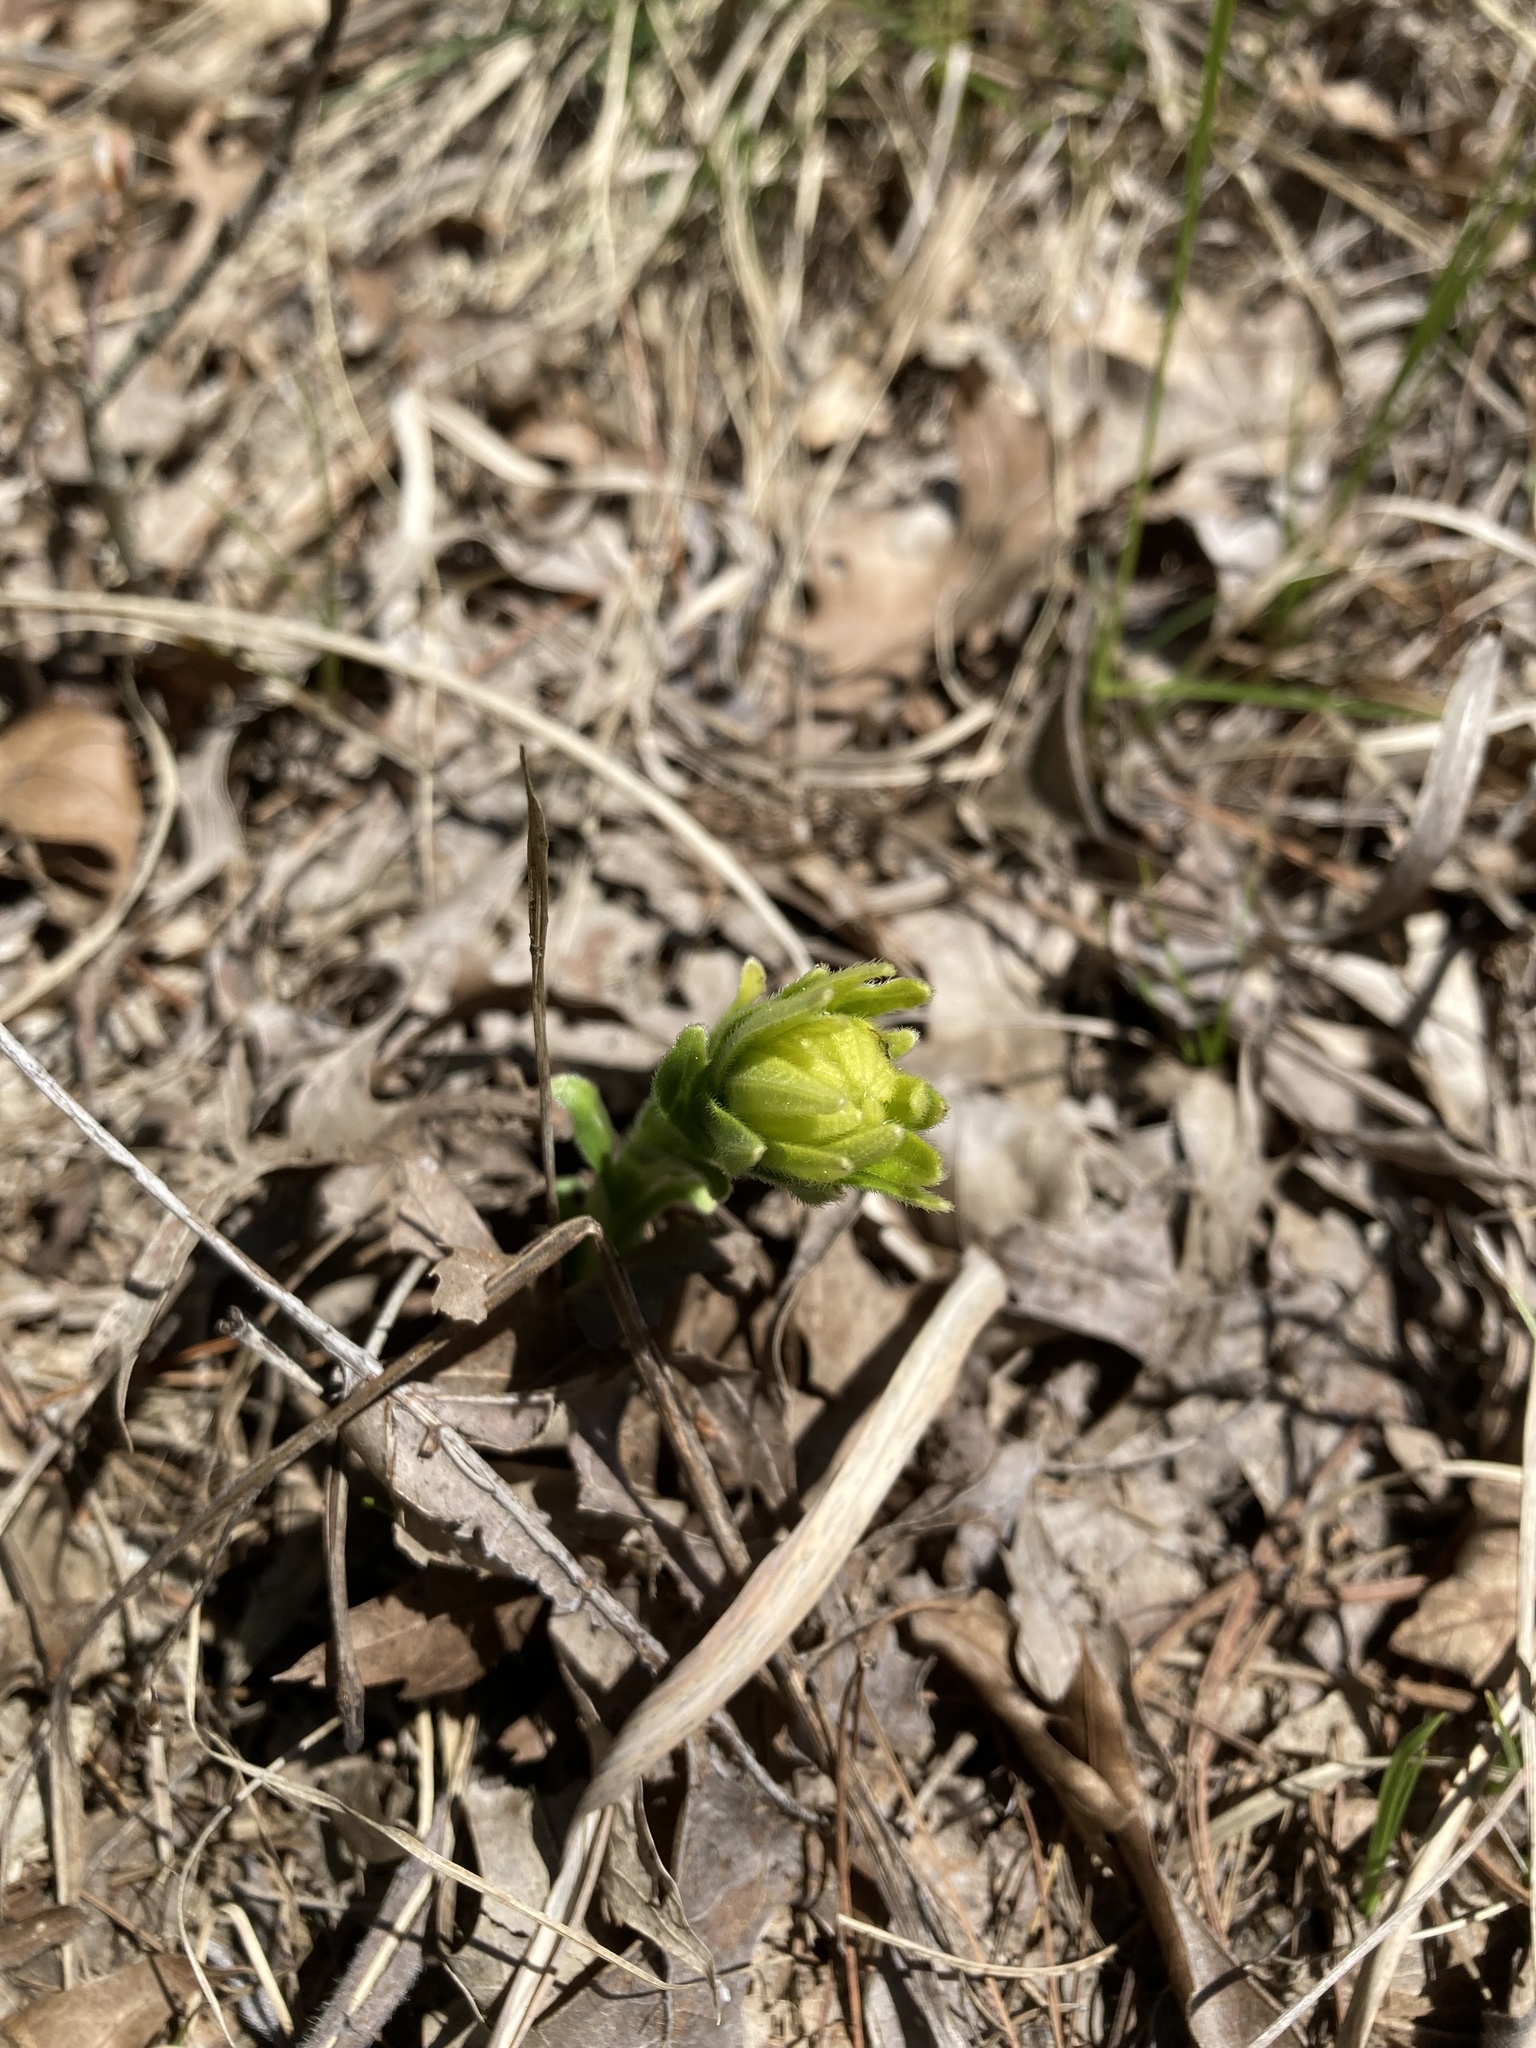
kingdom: Plantae
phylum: Tracheophyta
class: Magnoliopsida
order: Boraginales
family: Boraginaceae
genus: Lithospermum
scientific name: Lithospermum caroliniense
